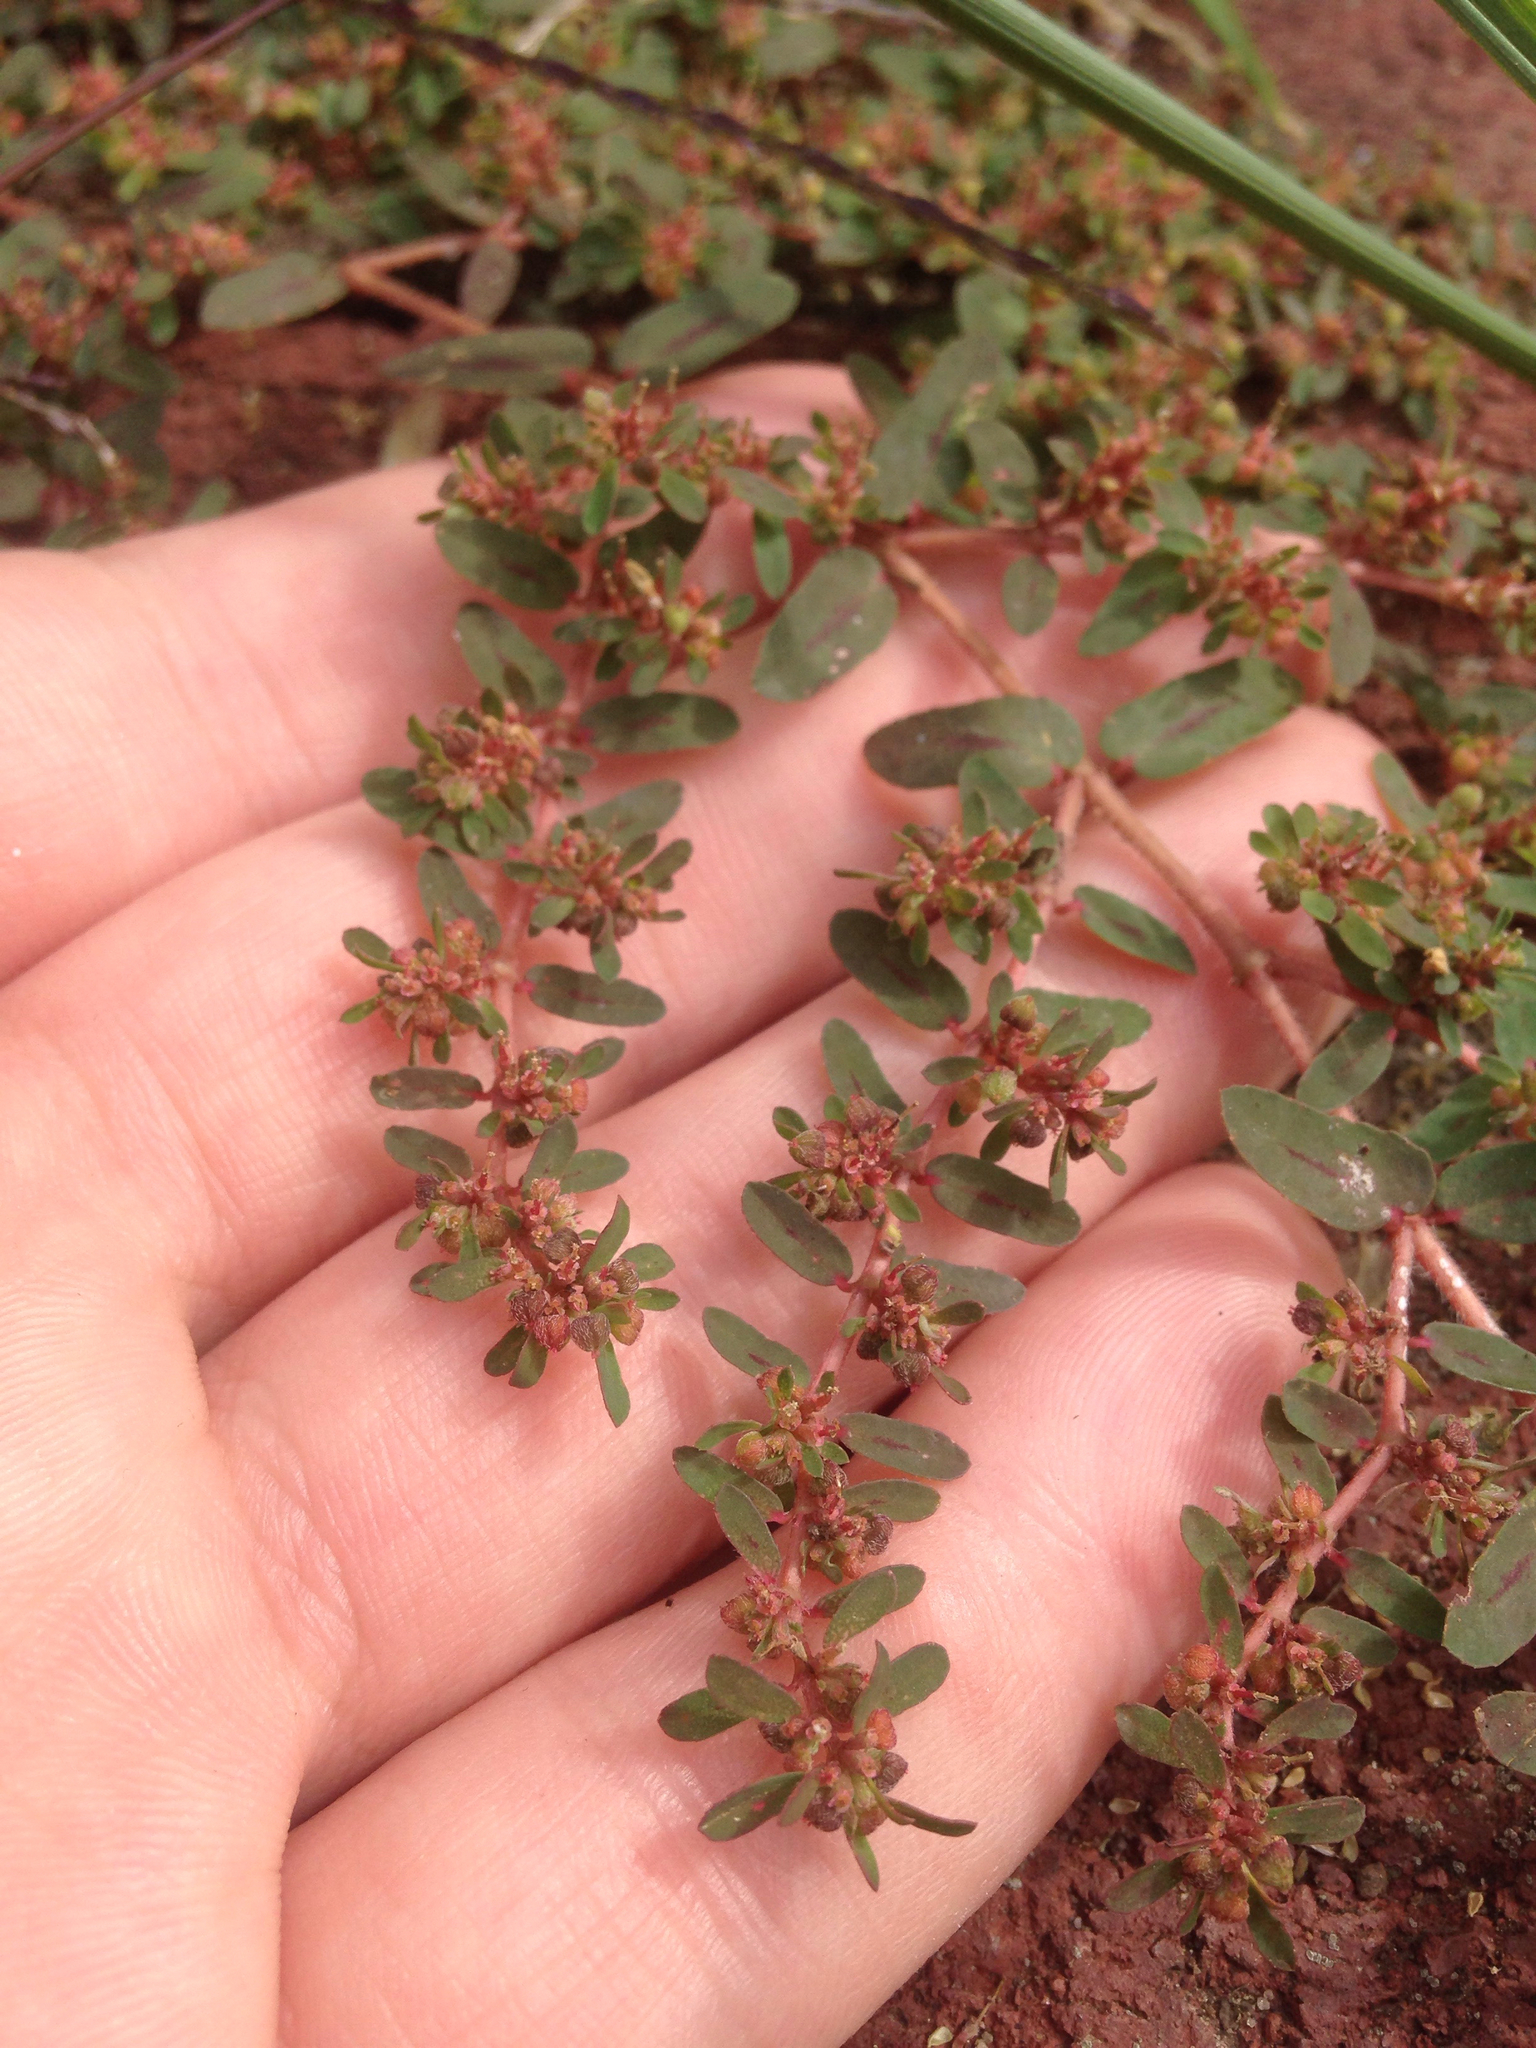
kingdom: Plantae
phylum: Tracheophyta
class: Magnoliopsida
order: Malpighiales
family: Euphorbiaceae
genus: Euphorbia
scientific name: Euphorbia maculata
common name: Spotted spurge
